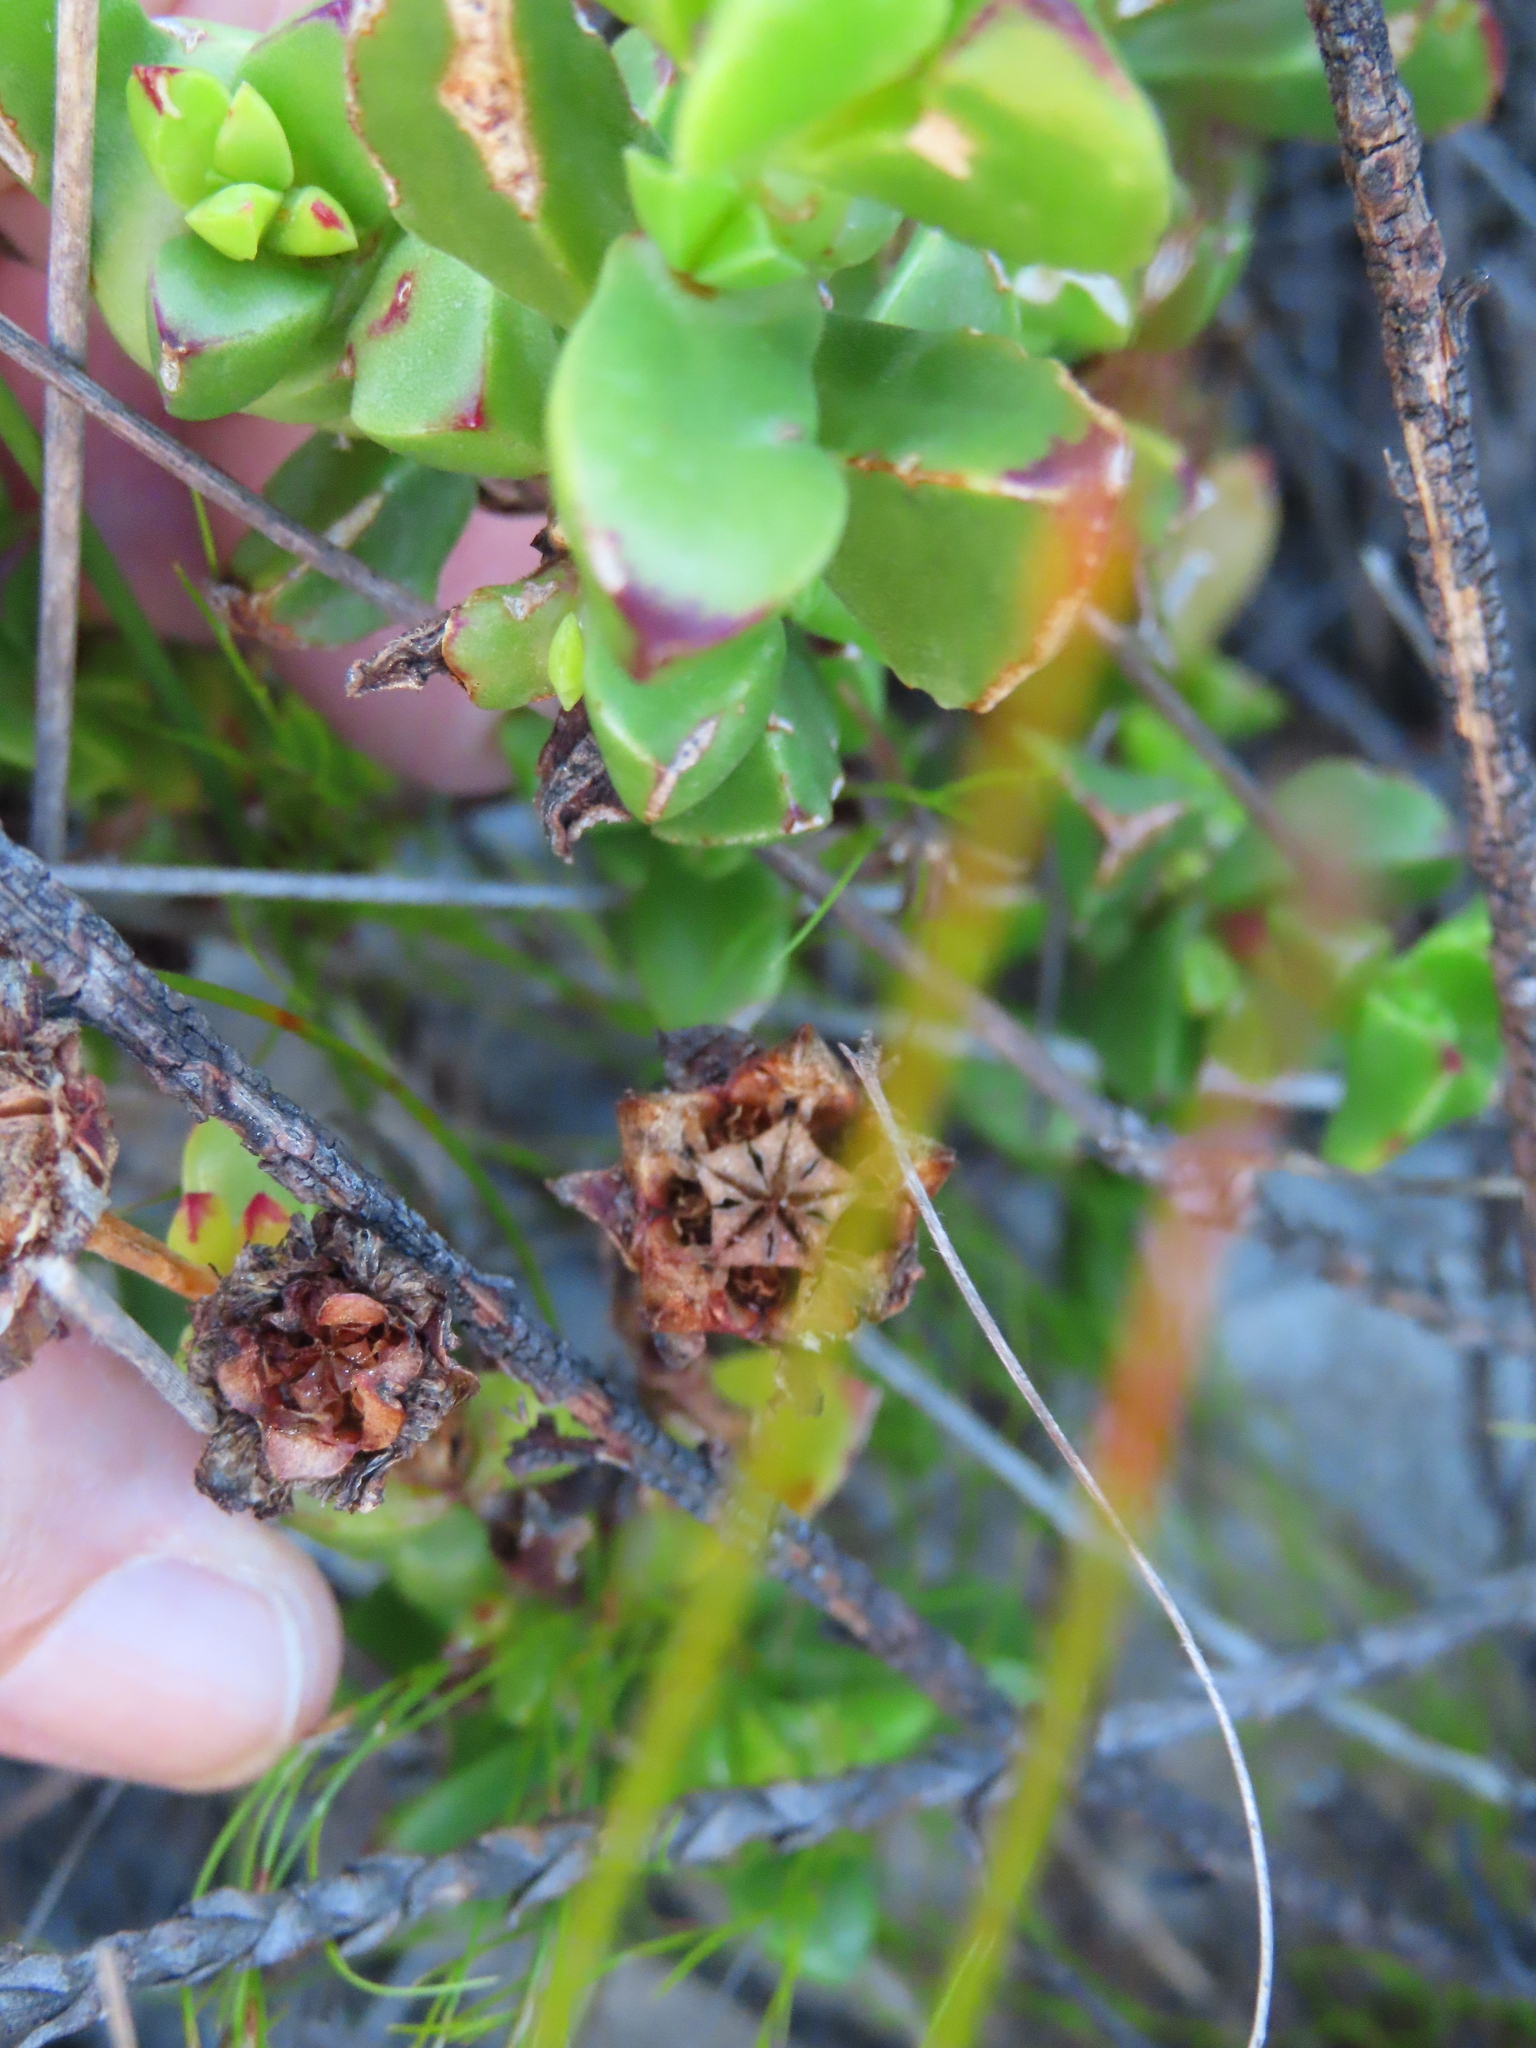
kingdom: Plantae
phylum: Tracheophyta
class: Magnoliopsida
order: Caryophyllales
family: Aizoaceae
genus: Erepsia
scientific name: Erepsia inclaudens
